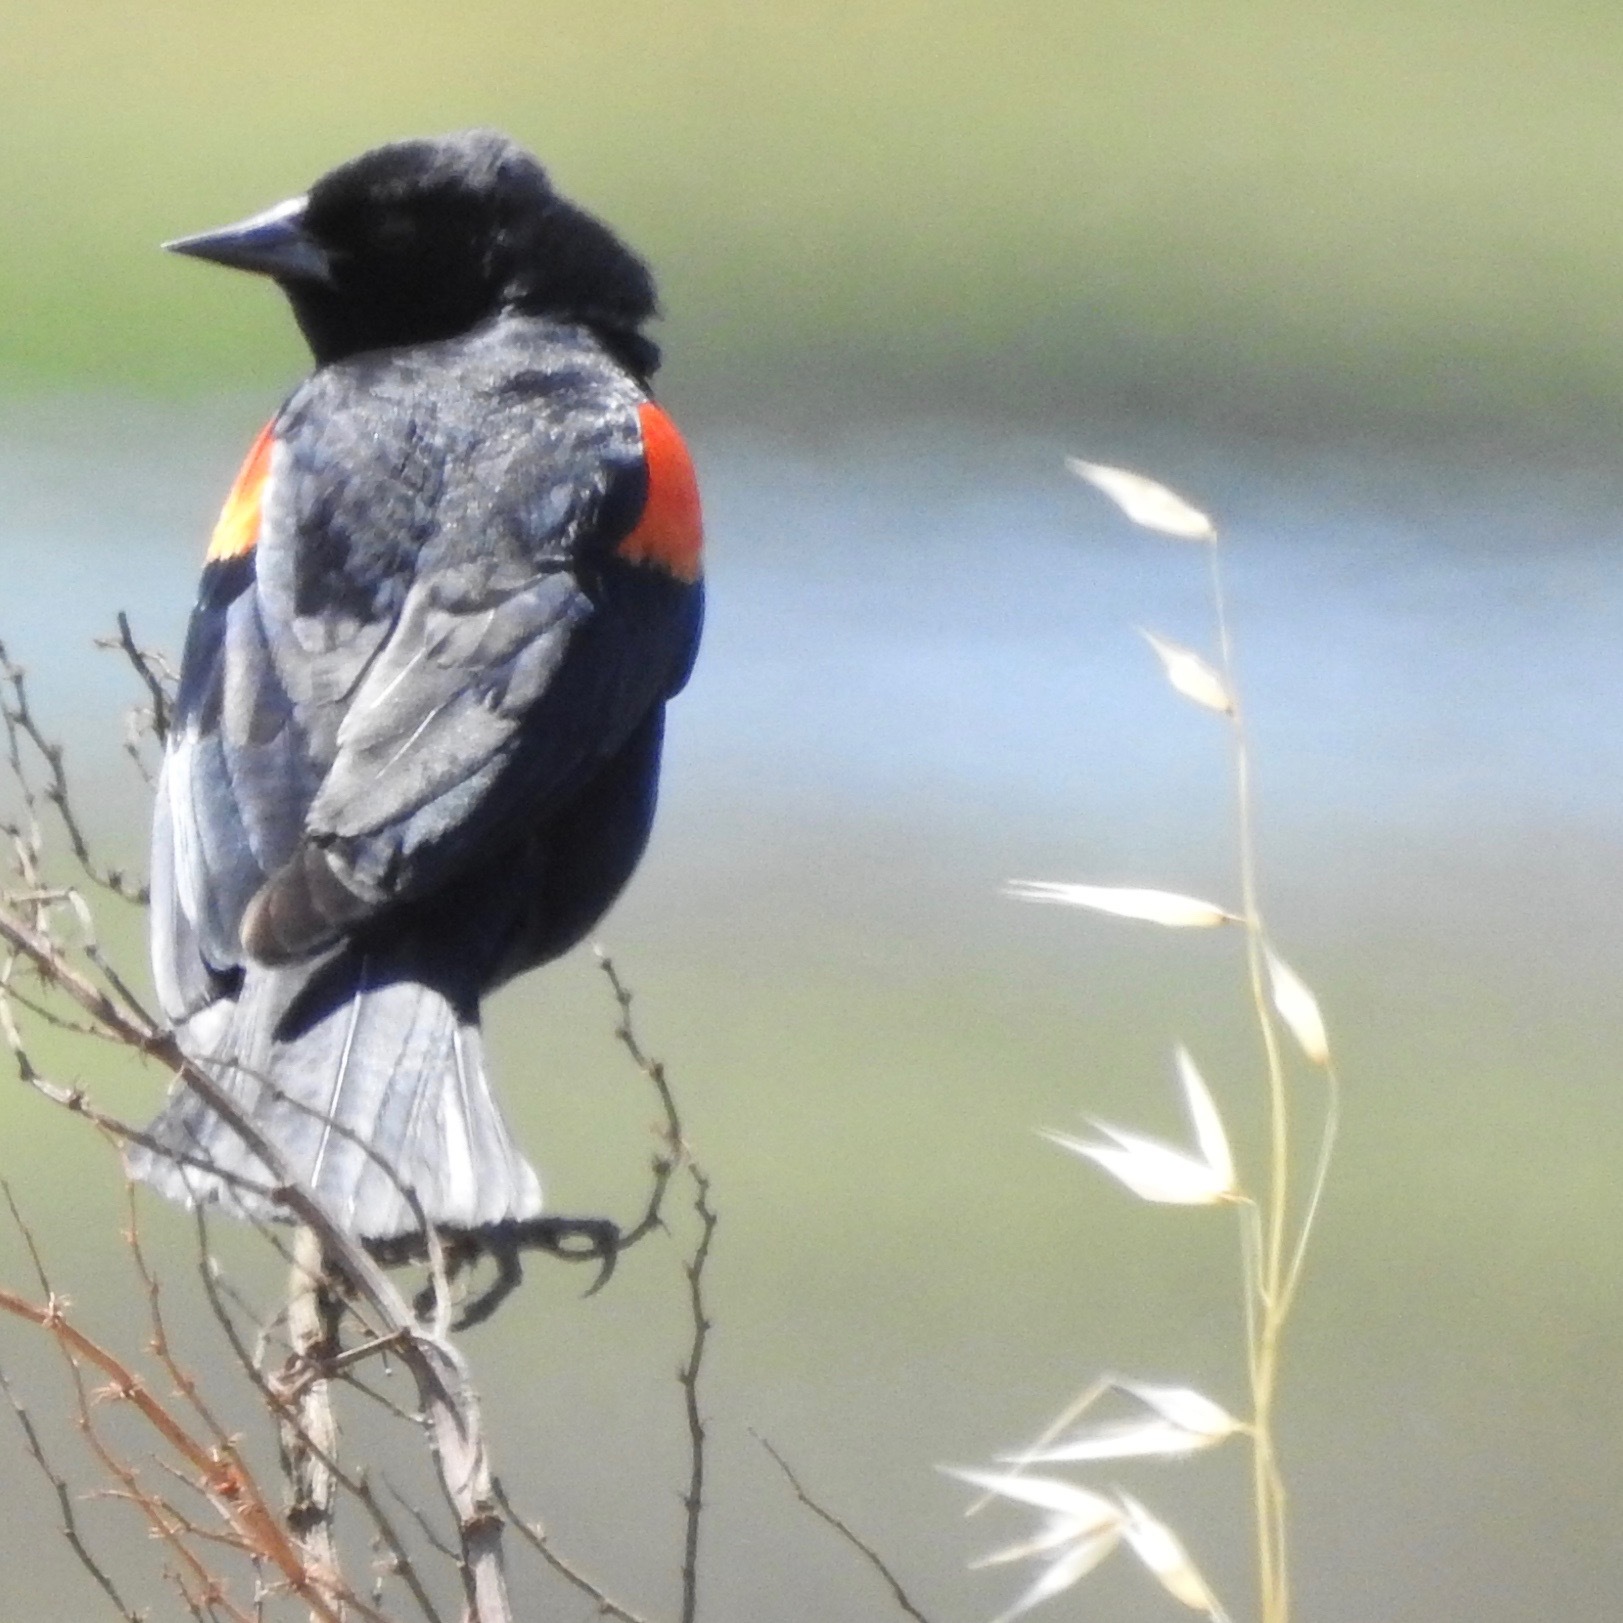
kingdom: Animalia
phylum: Chordata
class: Aves
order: Passeriformes
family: Icteridae
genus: Agelaius
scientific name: Agelaius phoeniceus
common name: Red-winged blackbird
